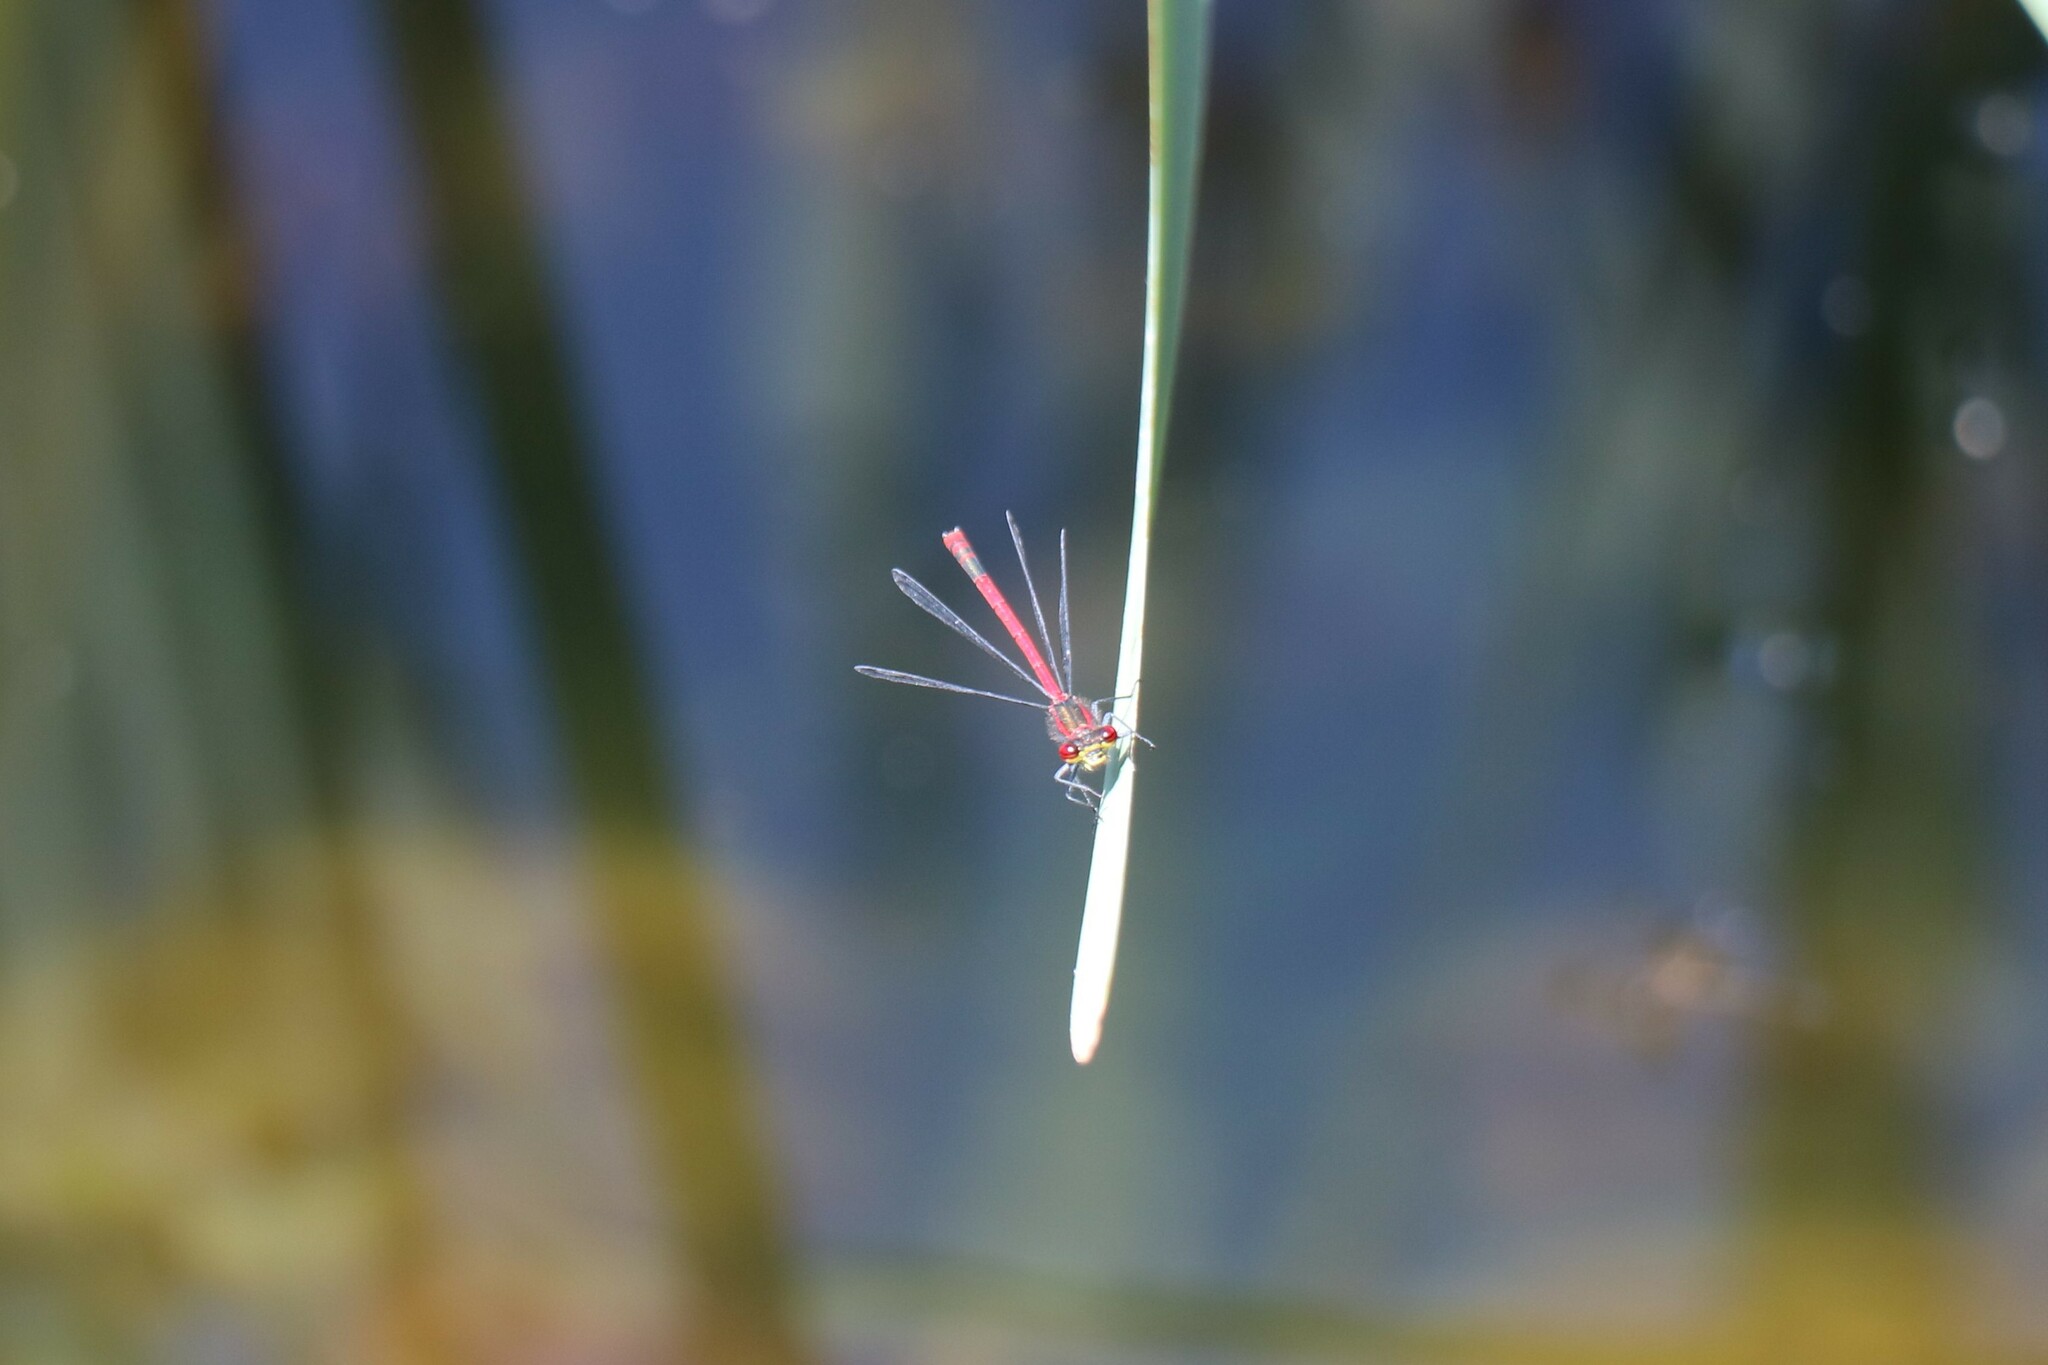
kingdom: Animalia
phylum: Arthropoda
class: Insecta
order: Odonata
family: Coenagrionidae
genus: Pyrrhosoma
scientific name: Pyrrhosoma nymphula
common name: Large red damsel
